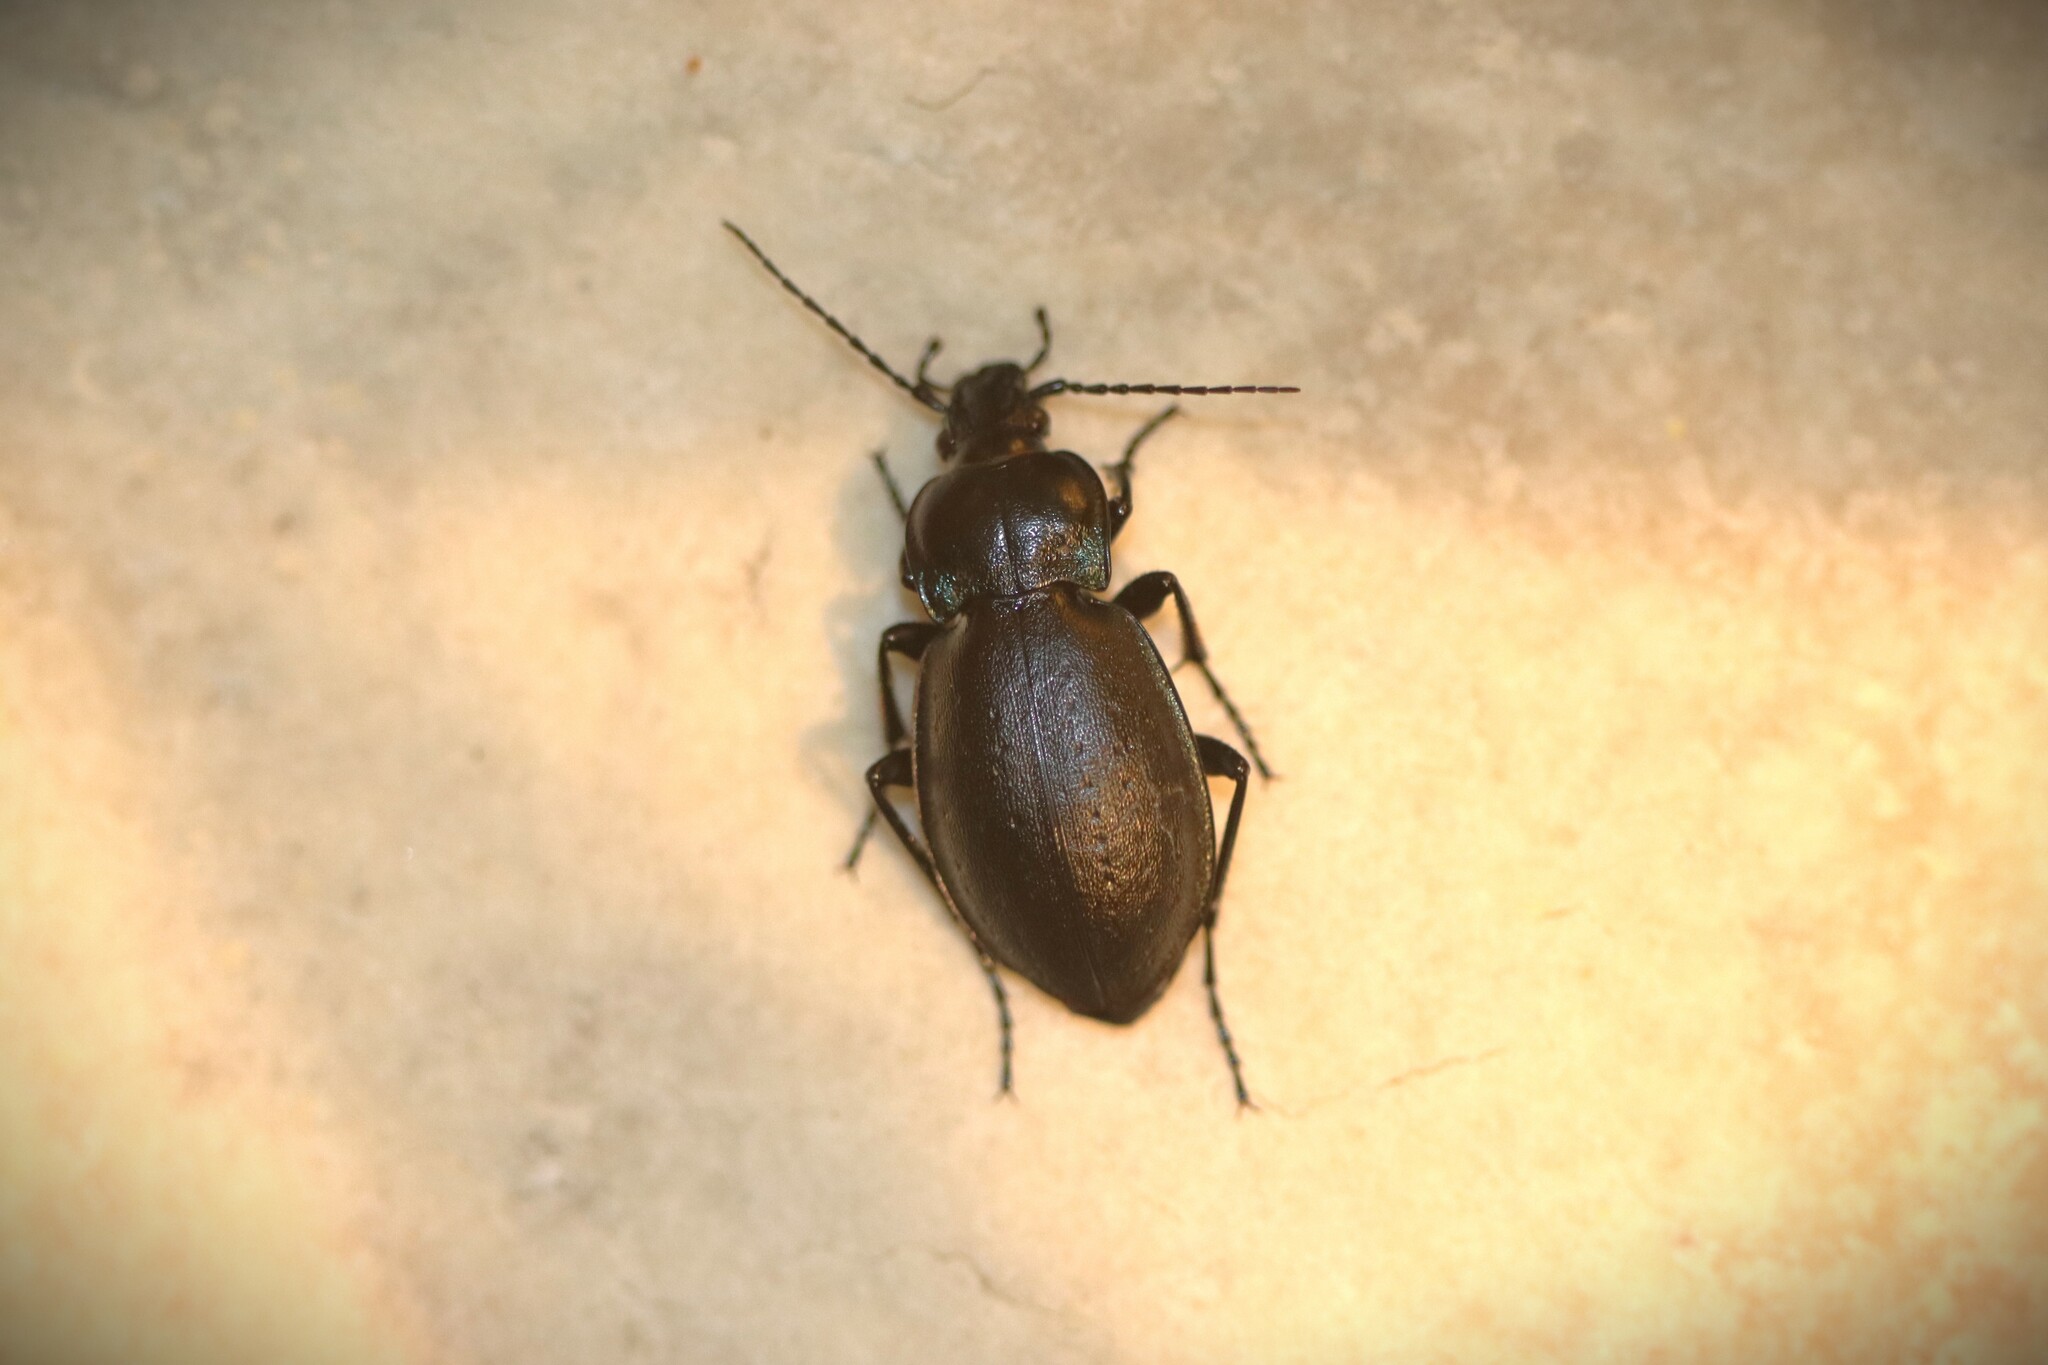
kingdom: Animalia
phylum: Arthropoda
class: Insecta
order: Coleoptera
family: Carabidae
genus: Carabus
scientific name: Carabus nemoralis
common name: European ground beetle
